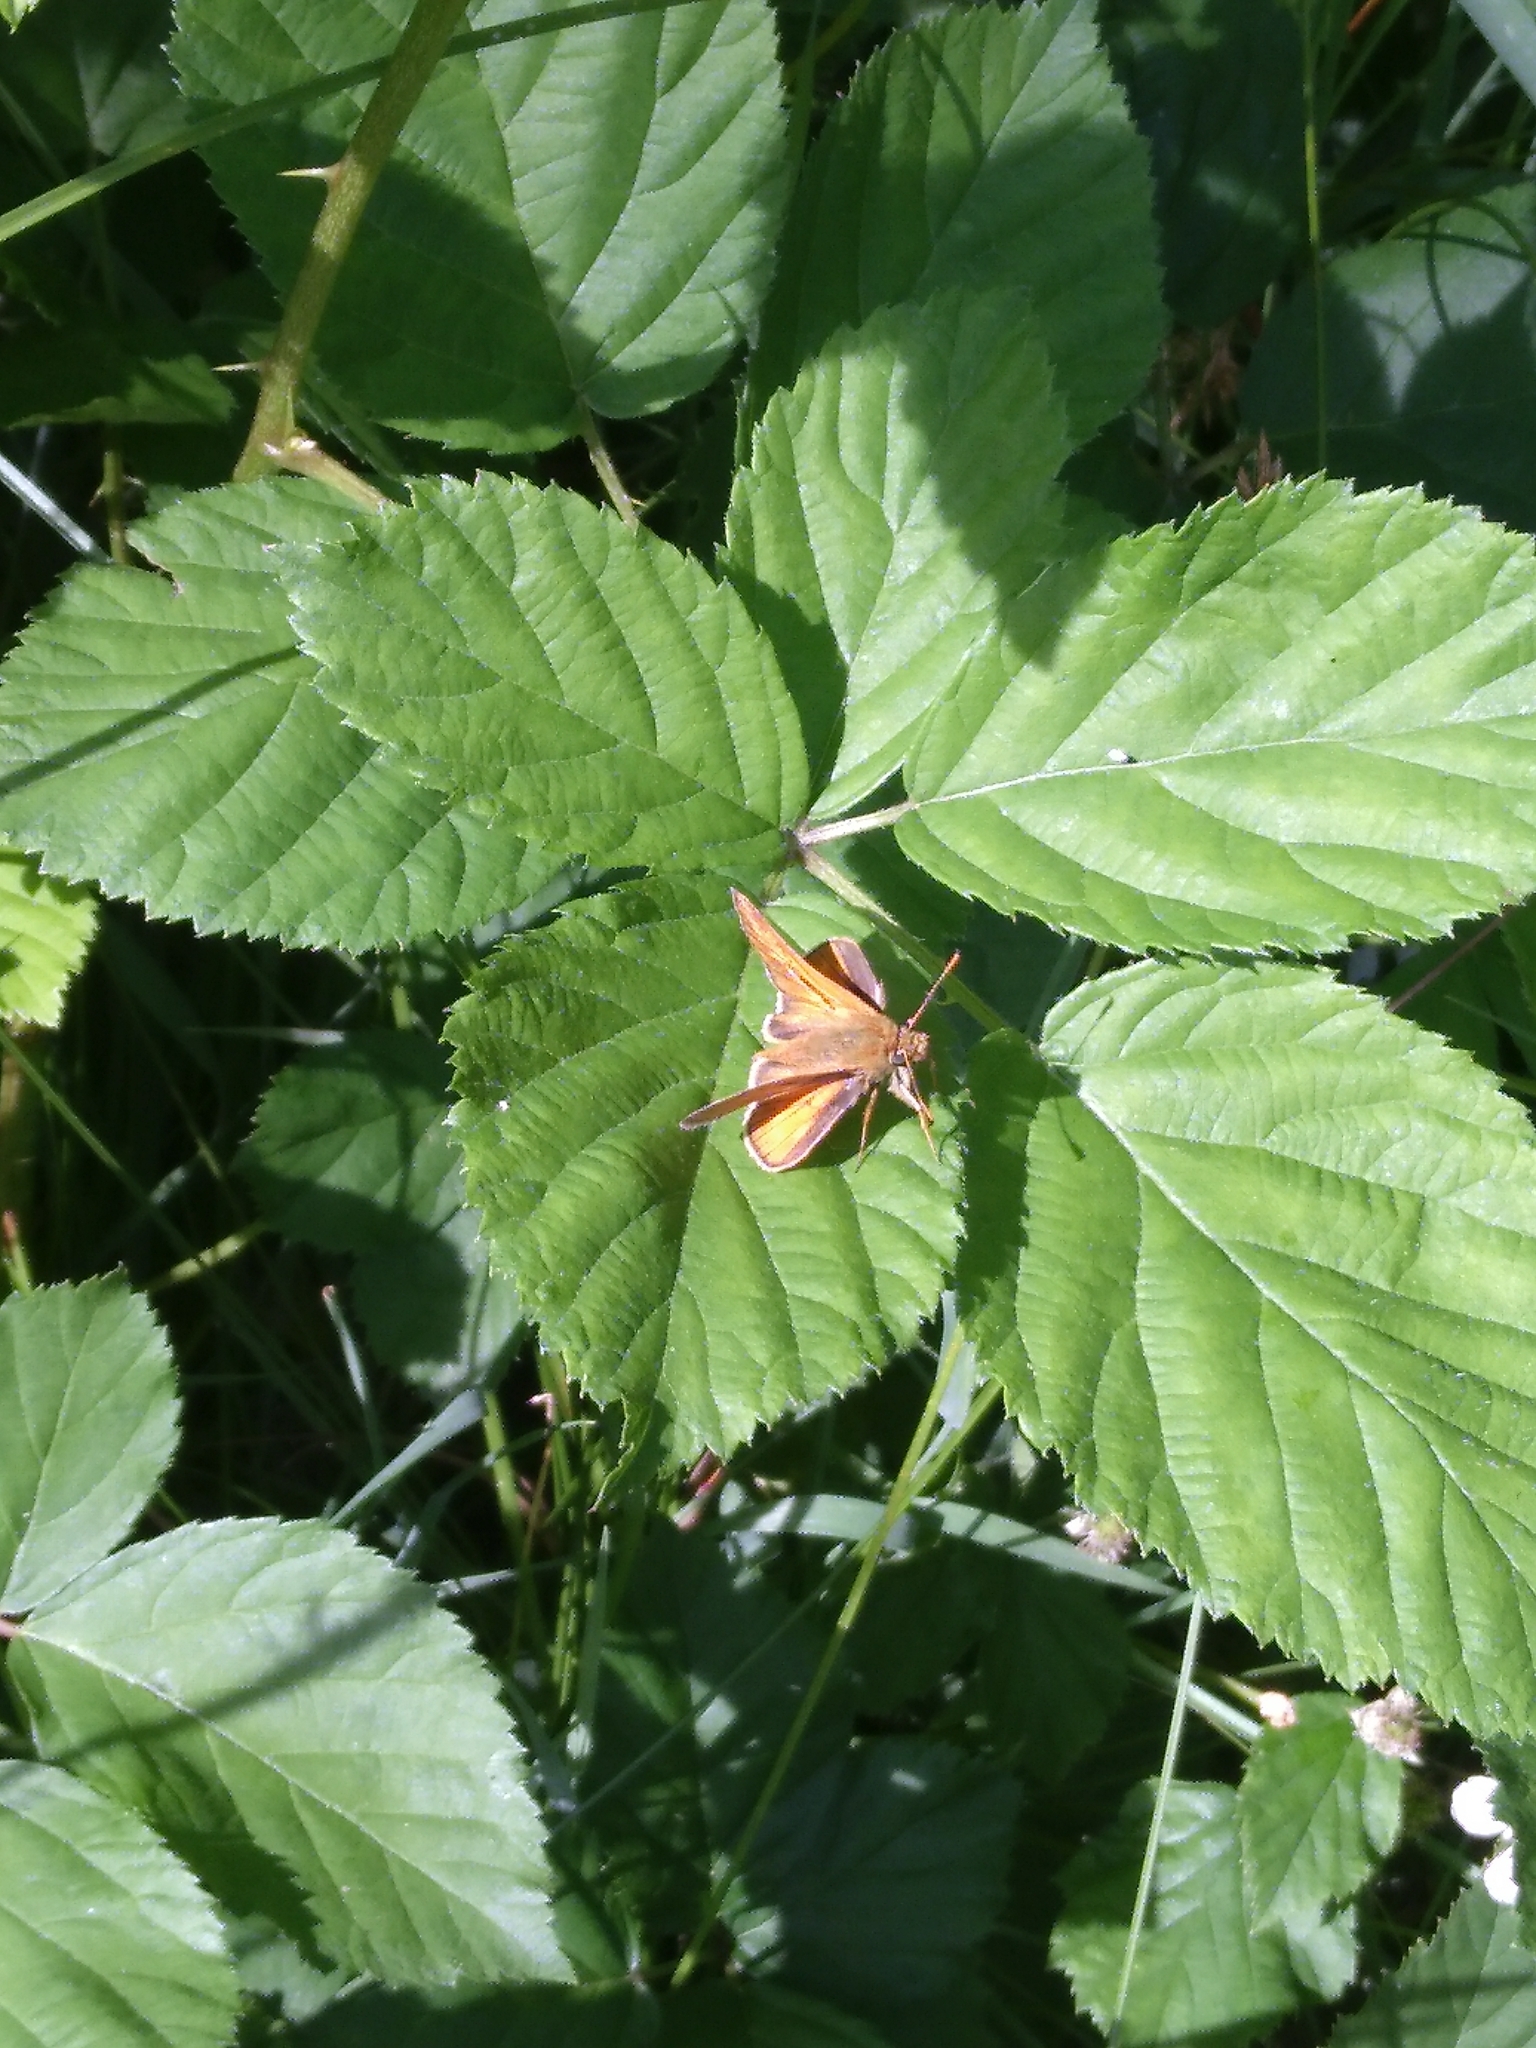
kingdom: Animalia
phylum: Arthropoda
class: Insecta
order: Lepidoptera
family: Hesperiidae
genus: Ochlodes
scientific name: Ochlodes venata
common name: Large skipper
